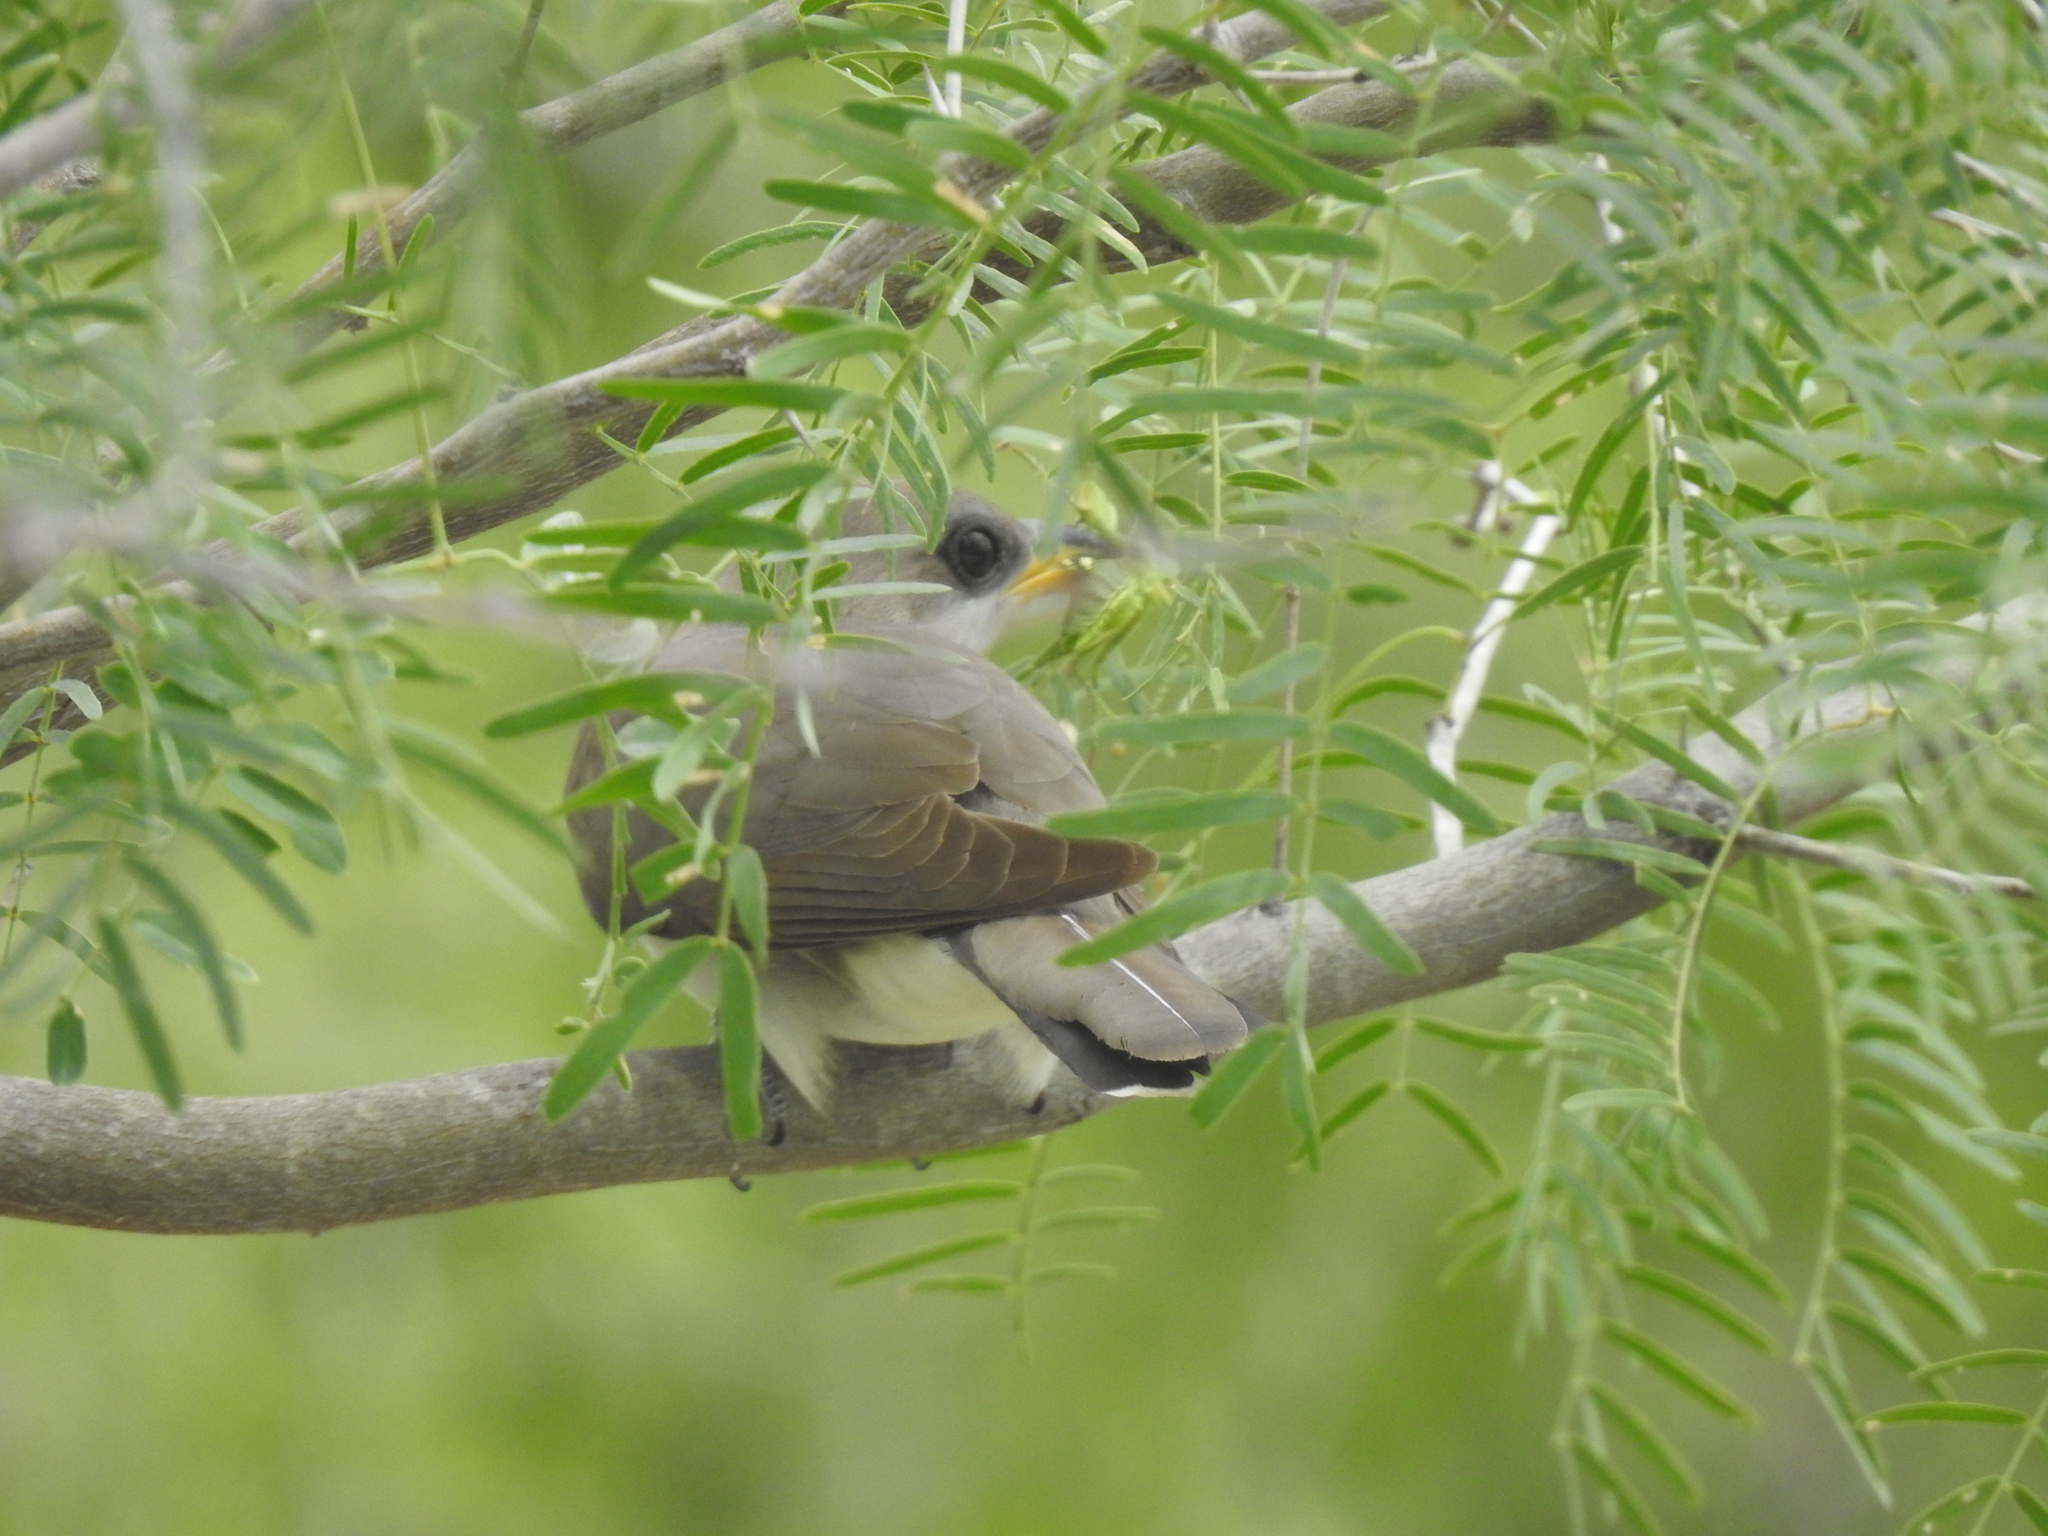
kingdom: Animalia
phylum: Chordata
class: Aves
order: Cuculiformes
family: Cuculidae
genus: Coccyzus
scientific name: Coccyzus americanus
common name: Yellow-billed cuckoo
